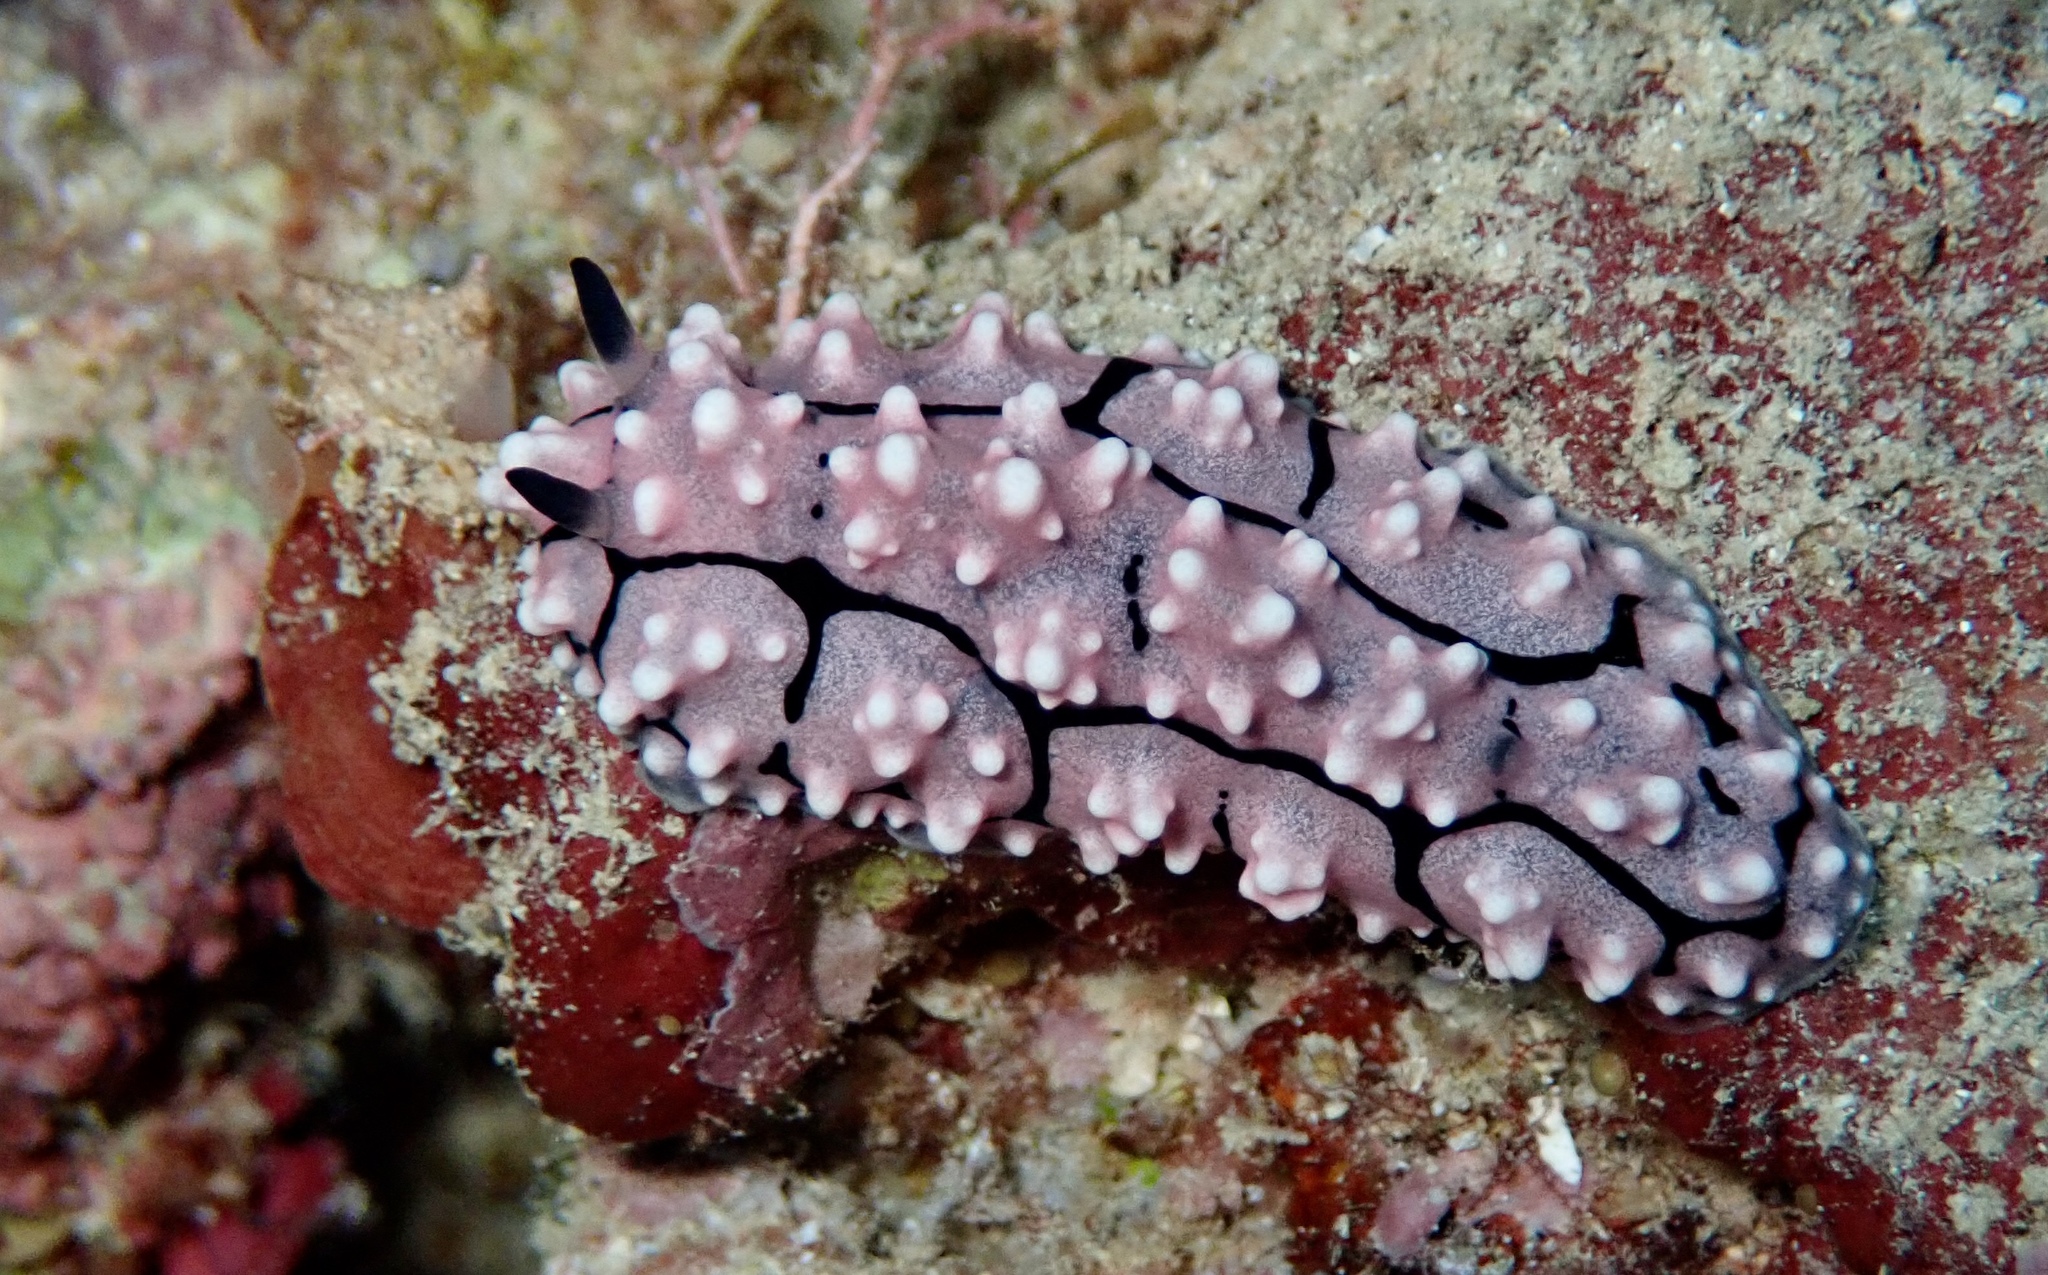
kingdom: Animalia
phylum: Mollusca
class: Gastropoda
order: Nudibranchia
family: Phyllidiidae
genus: Phyllidiella
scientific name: Phyllidiella lizae
